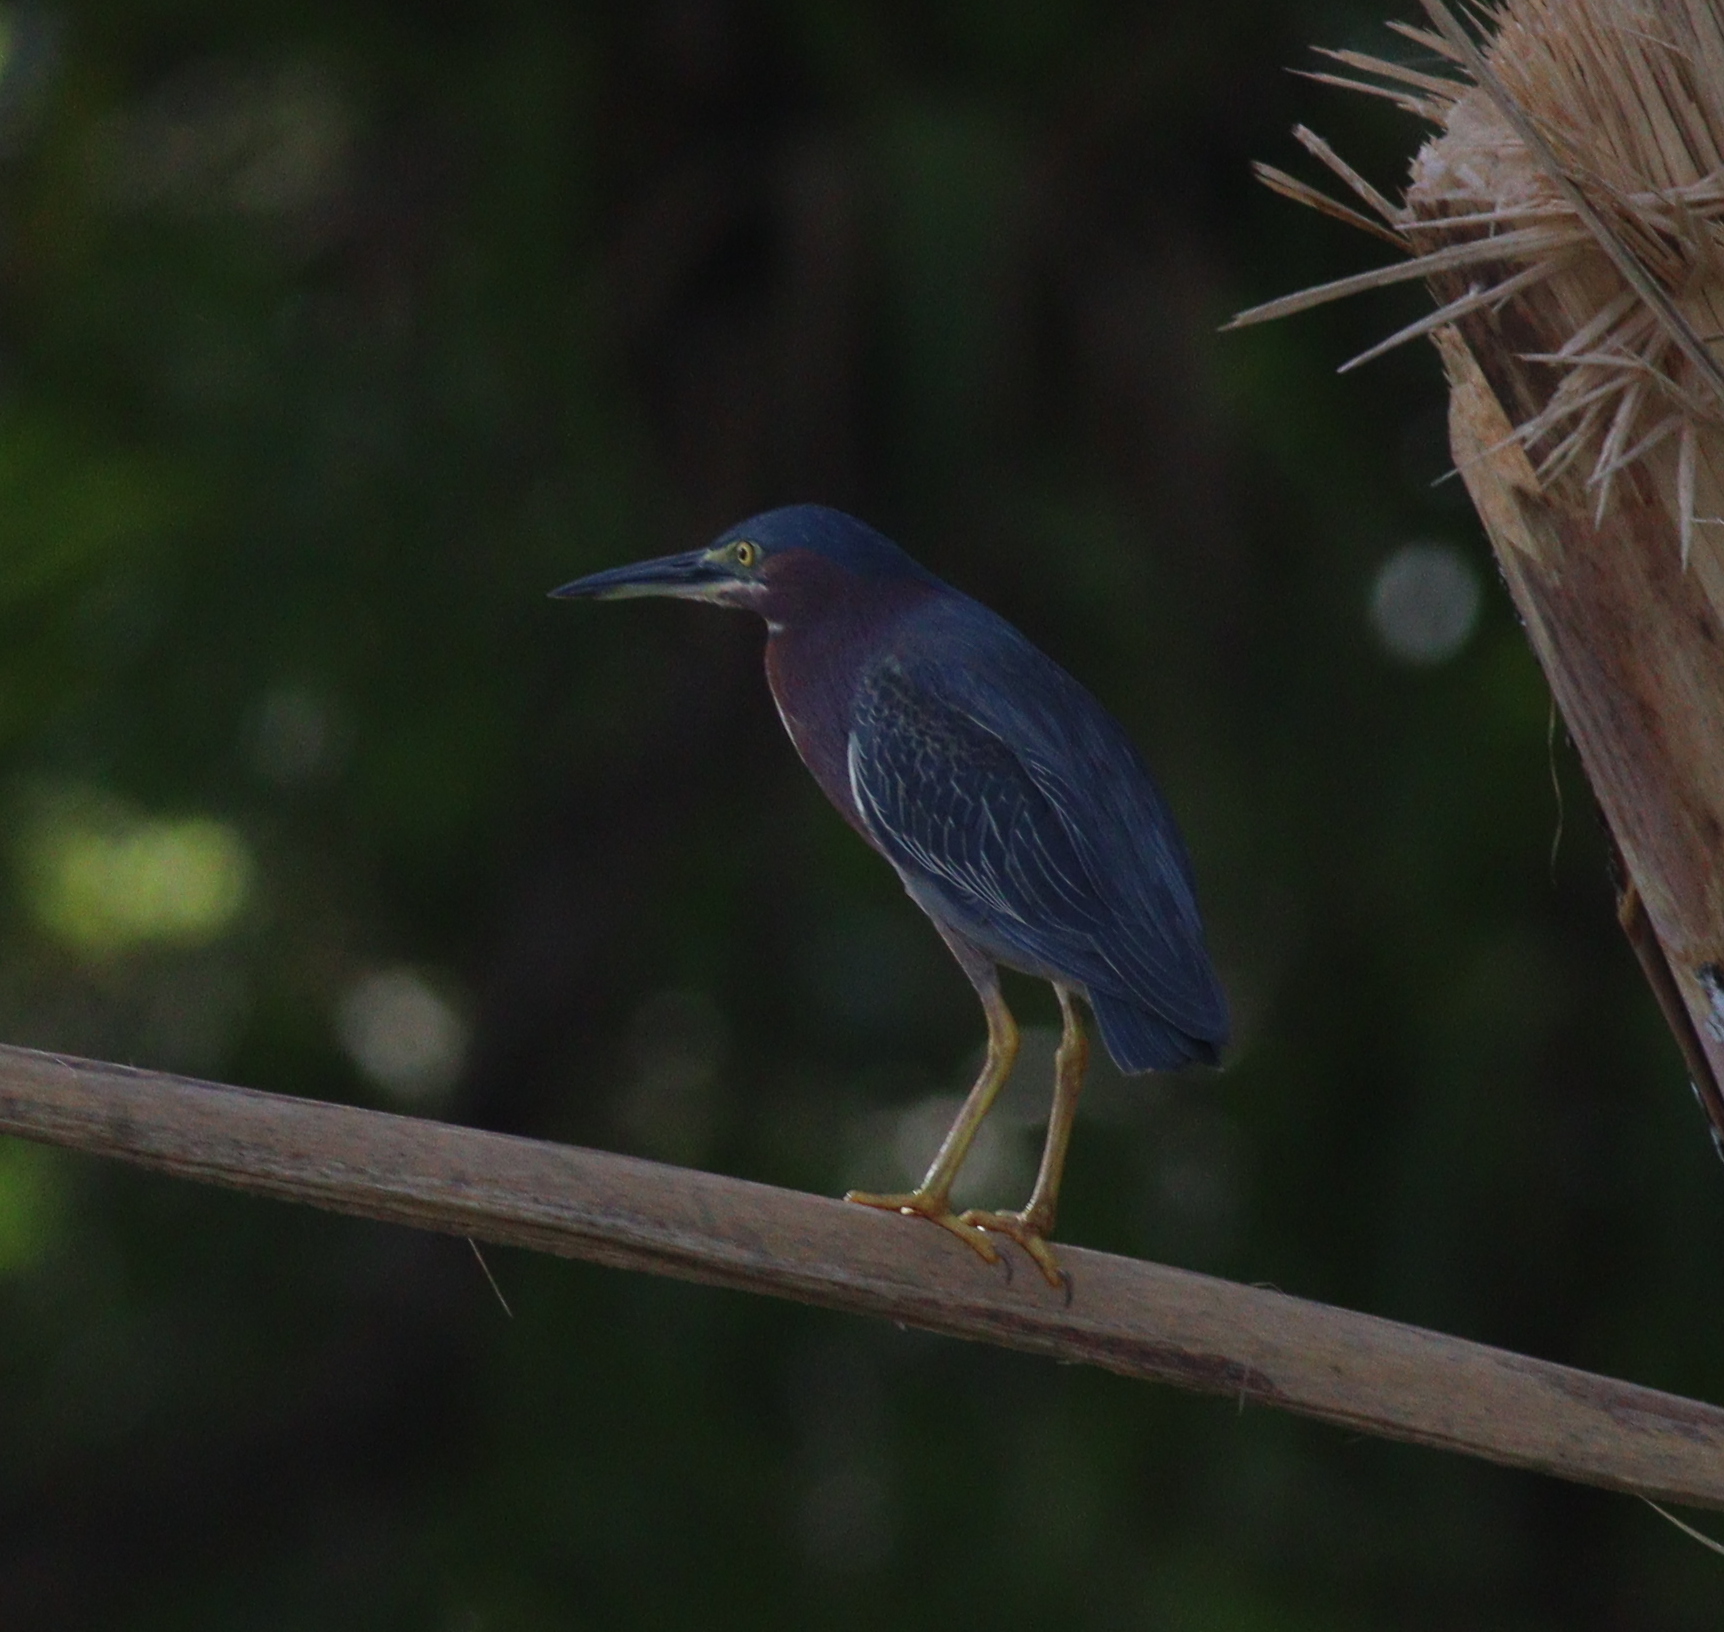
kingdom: Animalia
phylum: Chordata
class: Aves
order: Pelecaniformes
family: Ardeidae
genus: Butorides
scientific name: Butorides virescens
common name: Green heron
